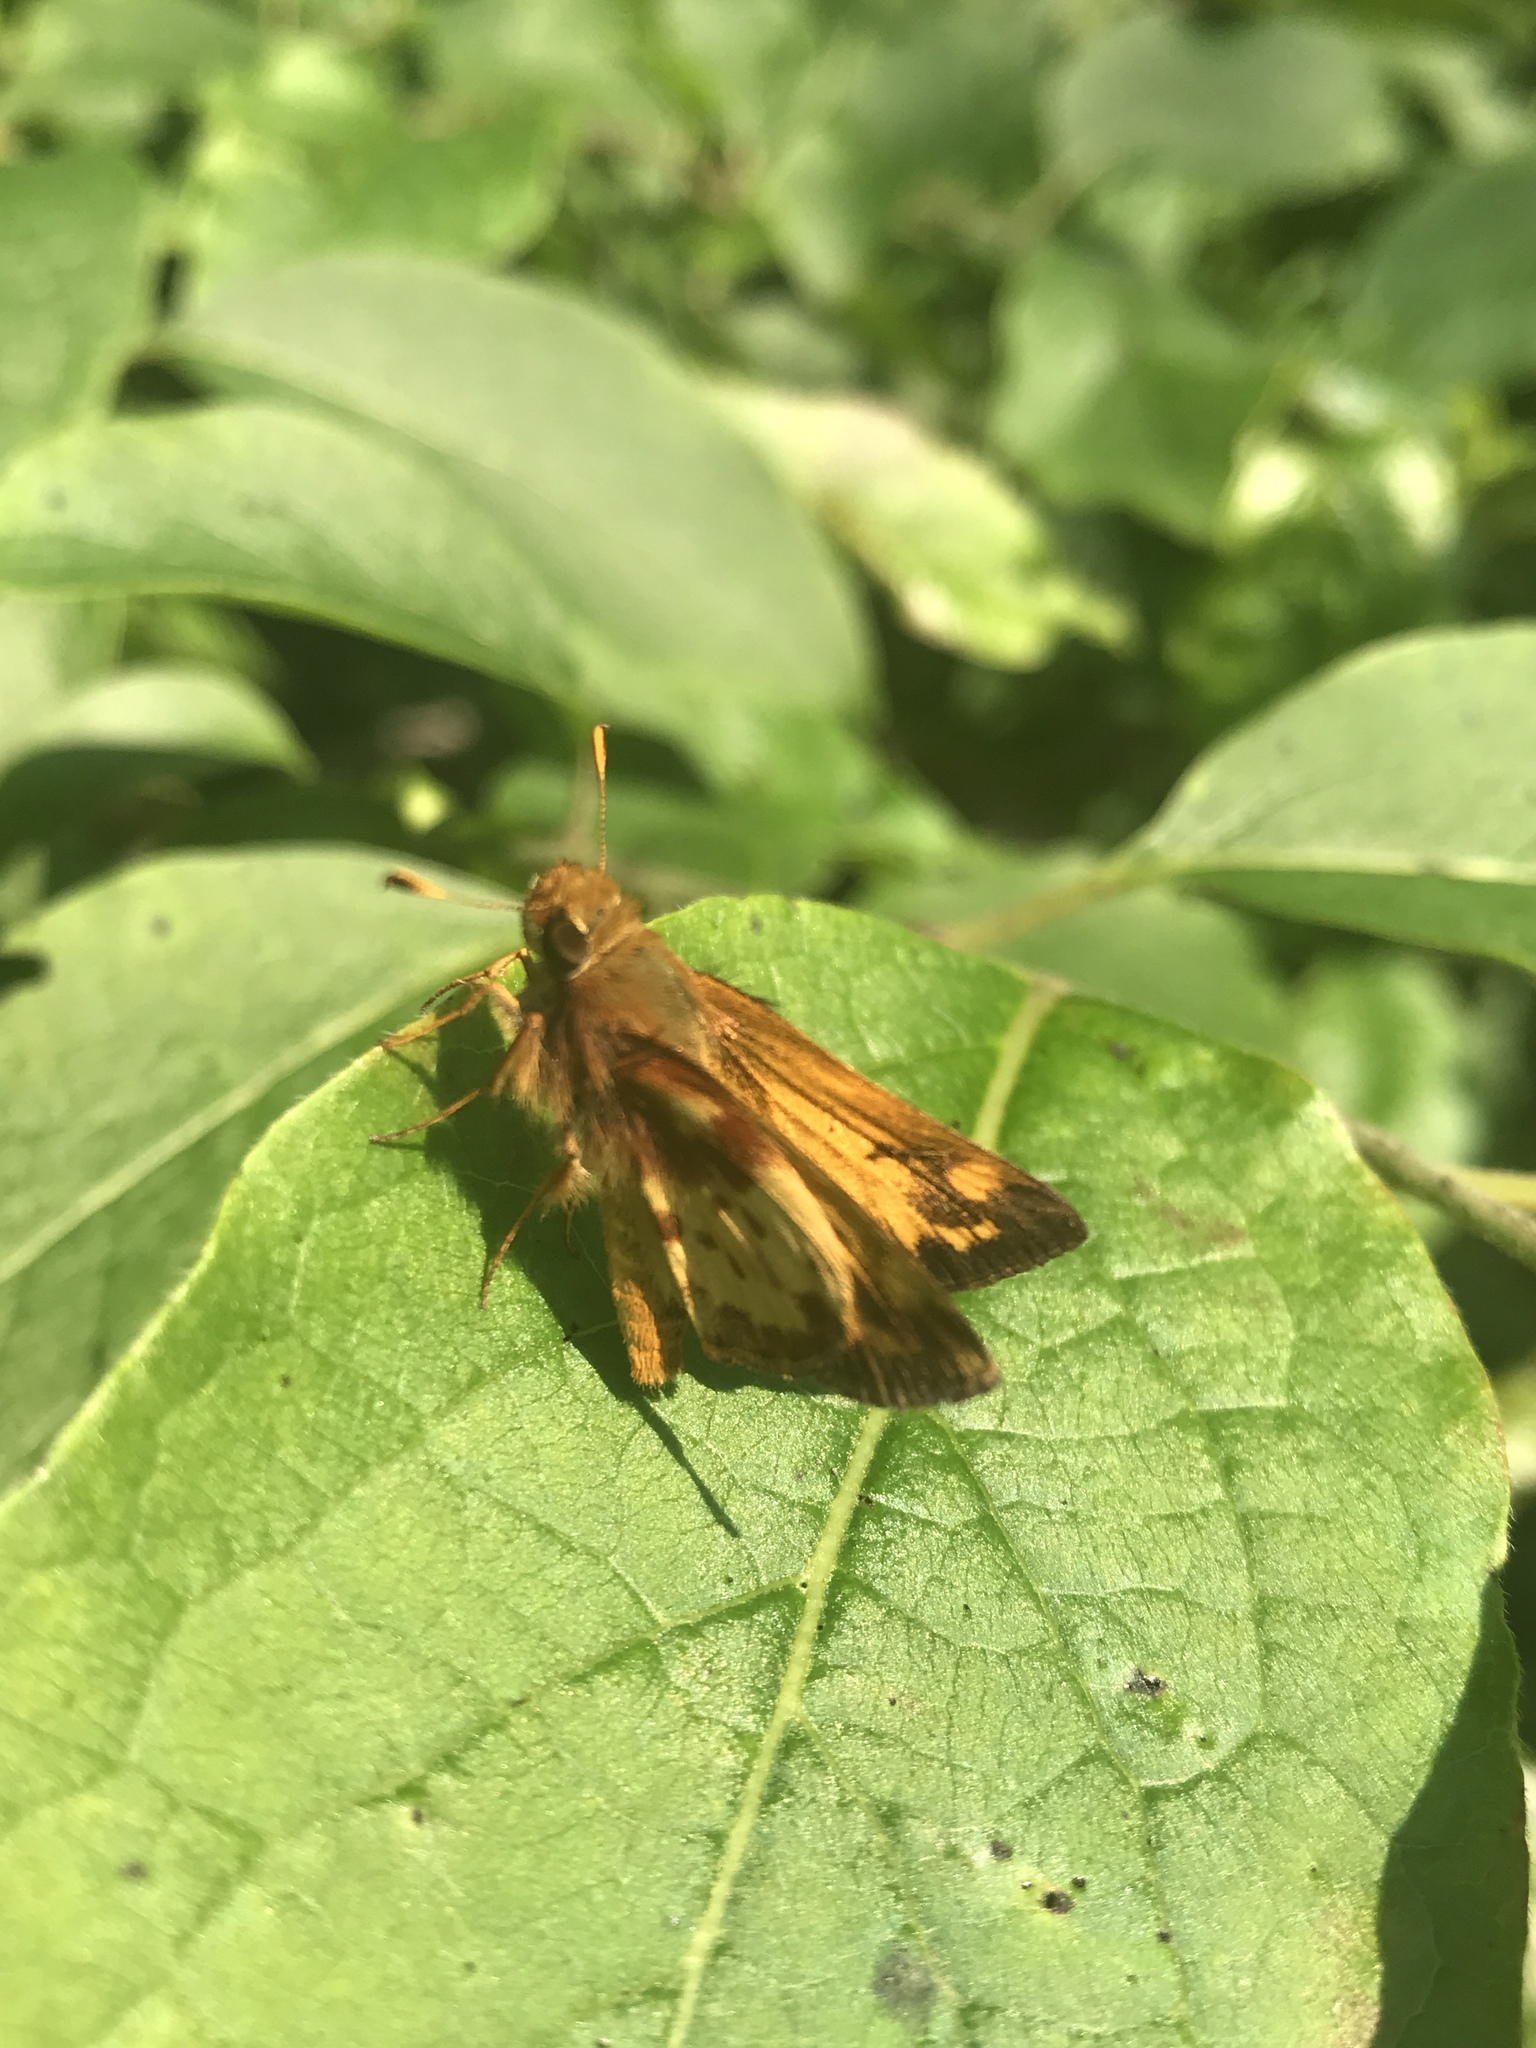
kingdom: Animalia
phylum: Arthropoda
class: Insecta
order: Lepidoptera
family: Hesperiidae
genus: Lon
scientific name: Lon zabulon
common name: Zabulon skipper
